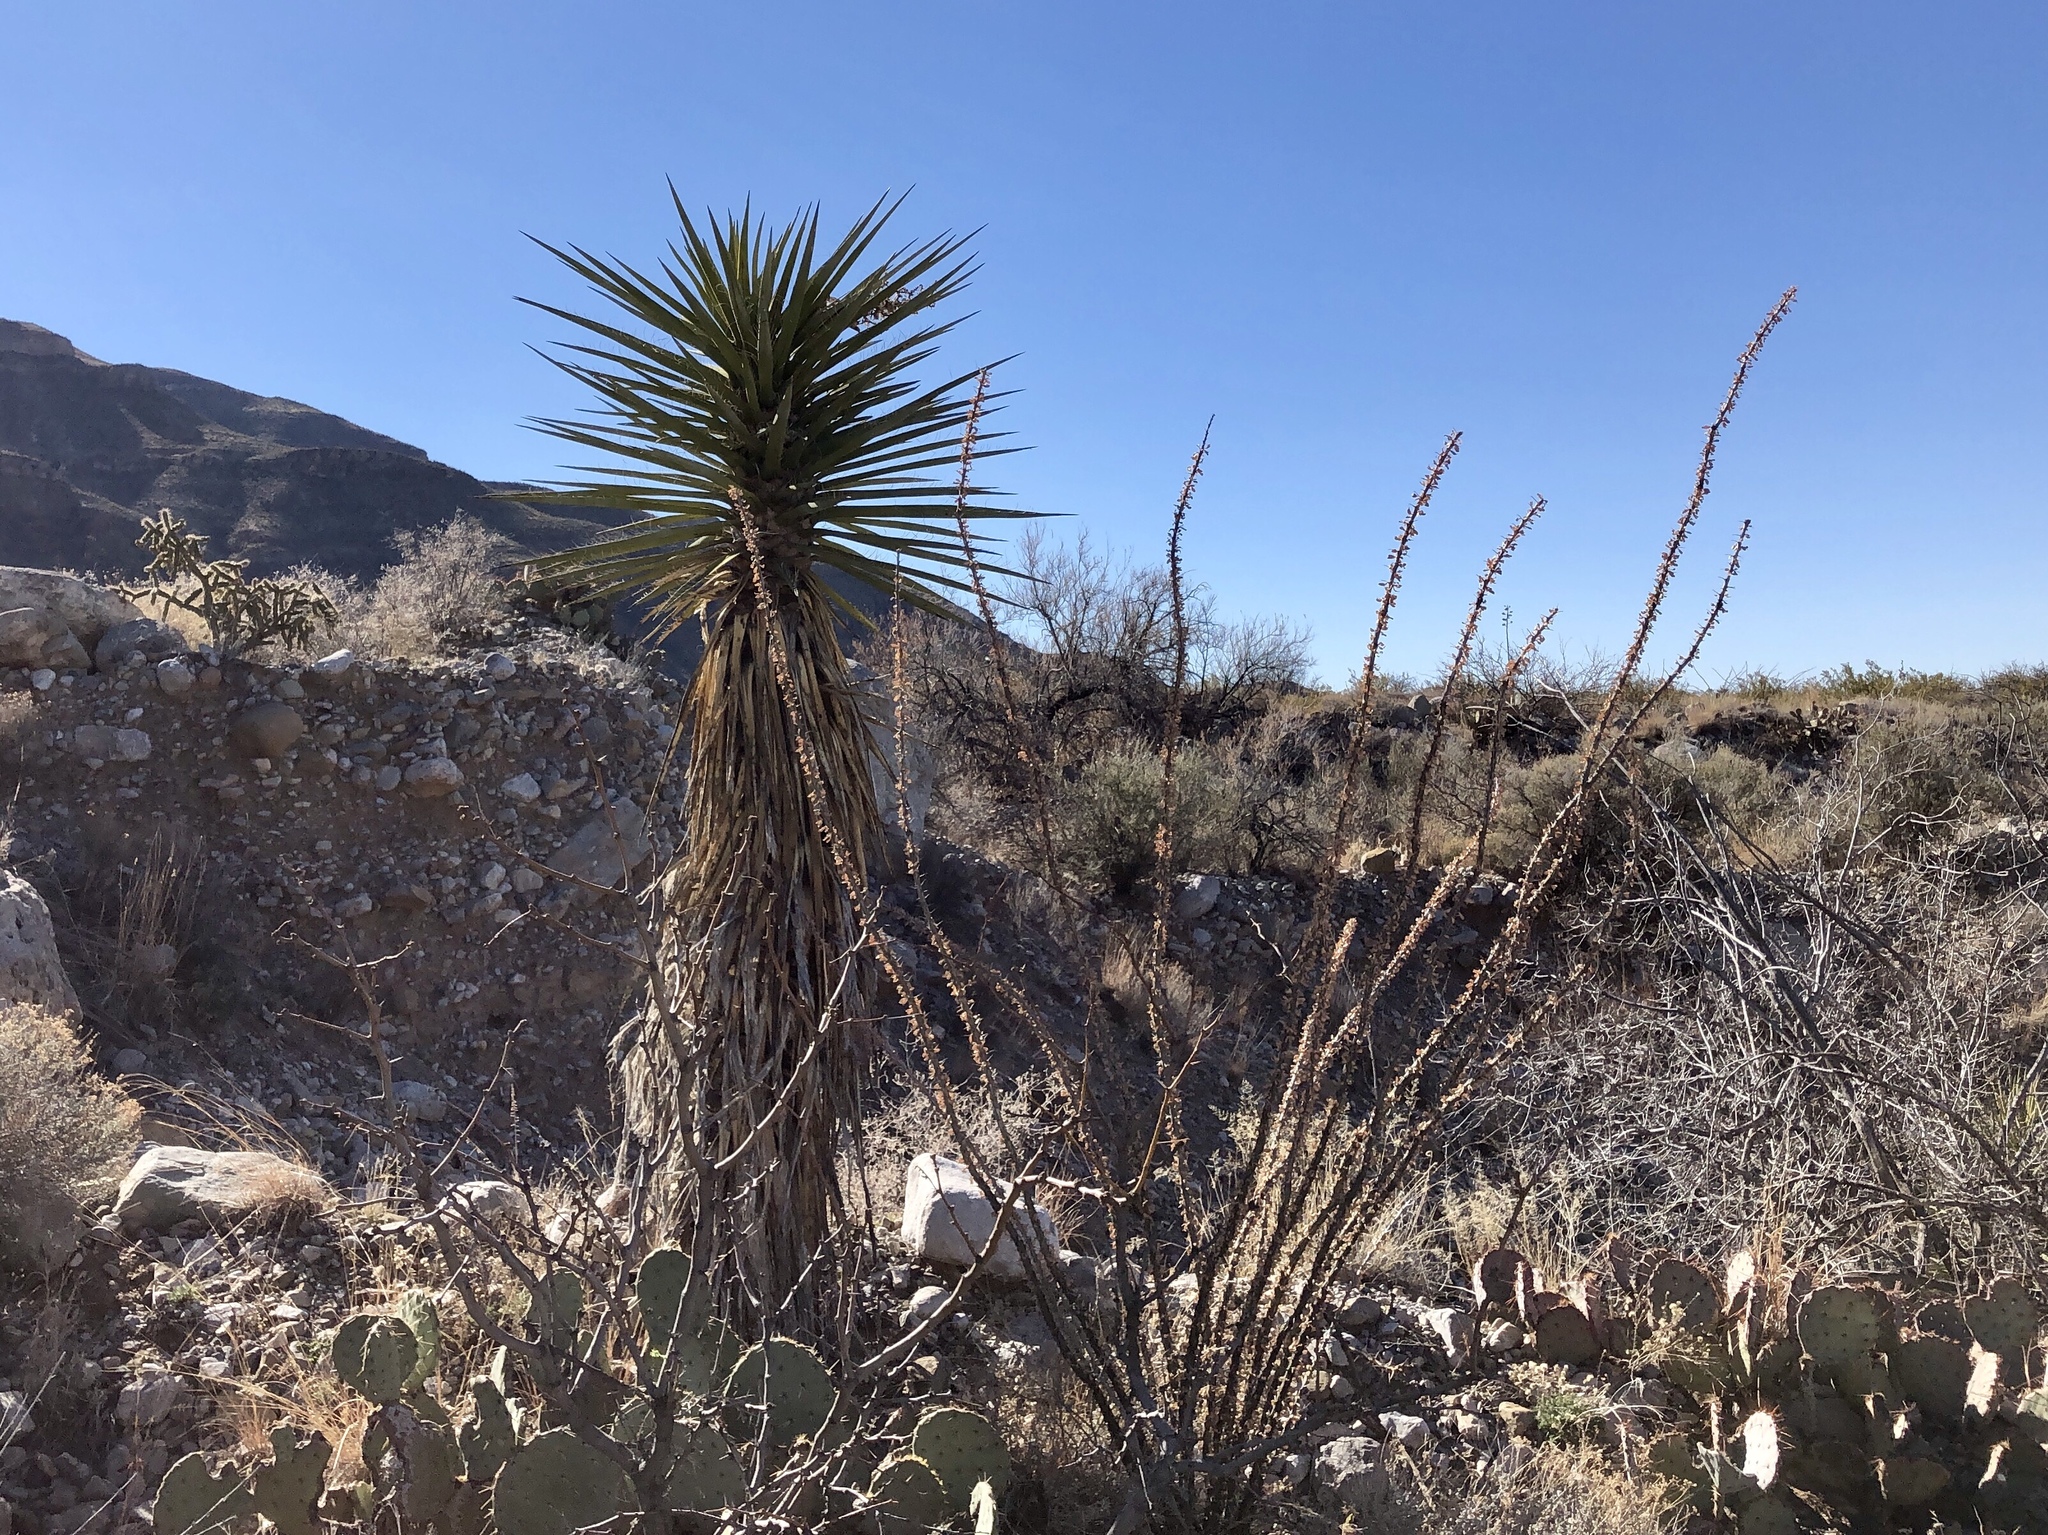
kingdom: Plantae
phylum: Tracheophyta
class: Liliopsida
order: Asparagales
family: Asparagaceae
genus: Yucca
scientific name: Yucca treculiana
